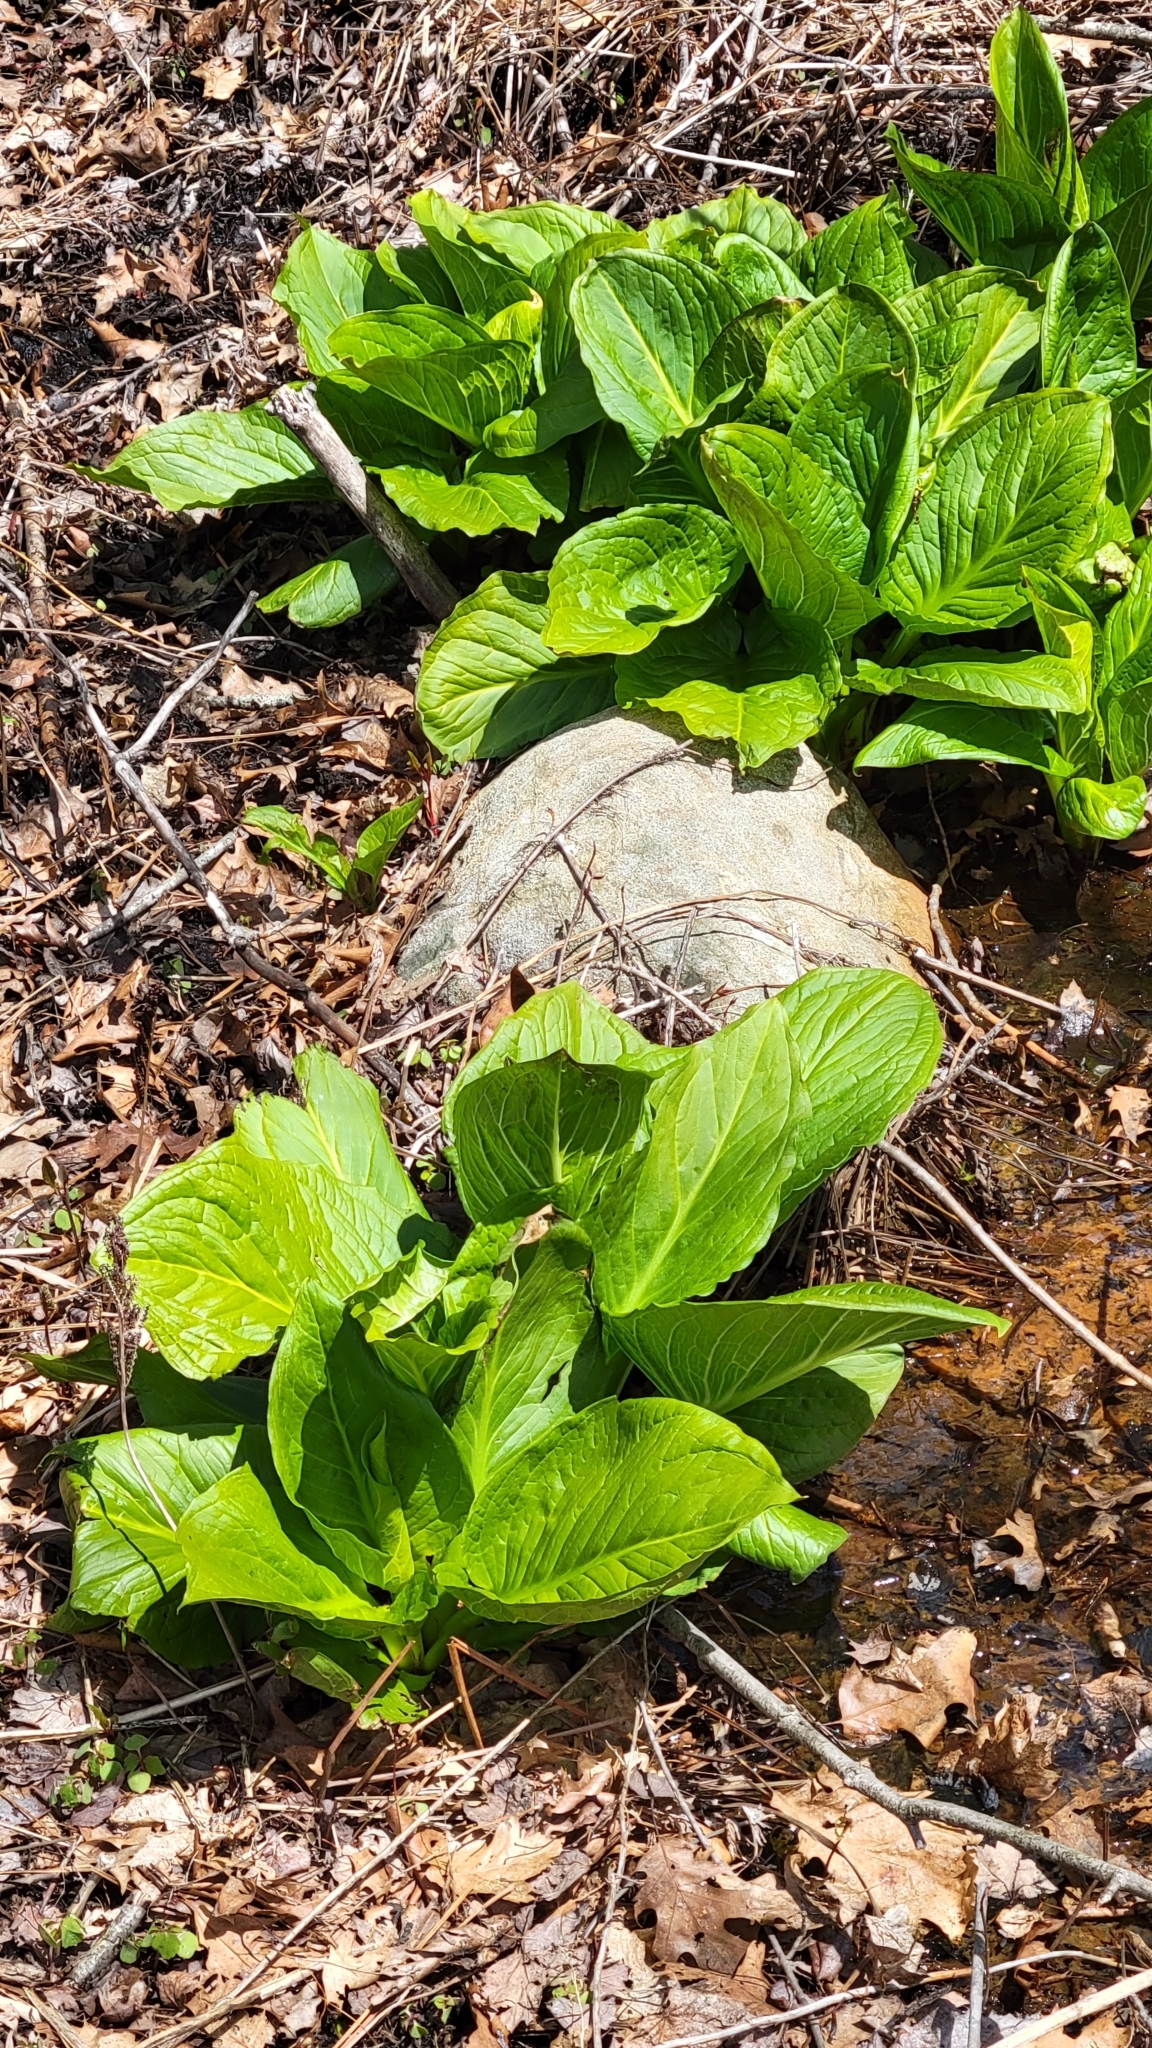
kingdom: Plantae
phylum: Tracheophyta
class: Liliopsida
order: Alismatales
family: Araceae
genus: Symplocarpus
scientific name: Symplocarpus foetidus
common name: Eastern skunk cabbage
